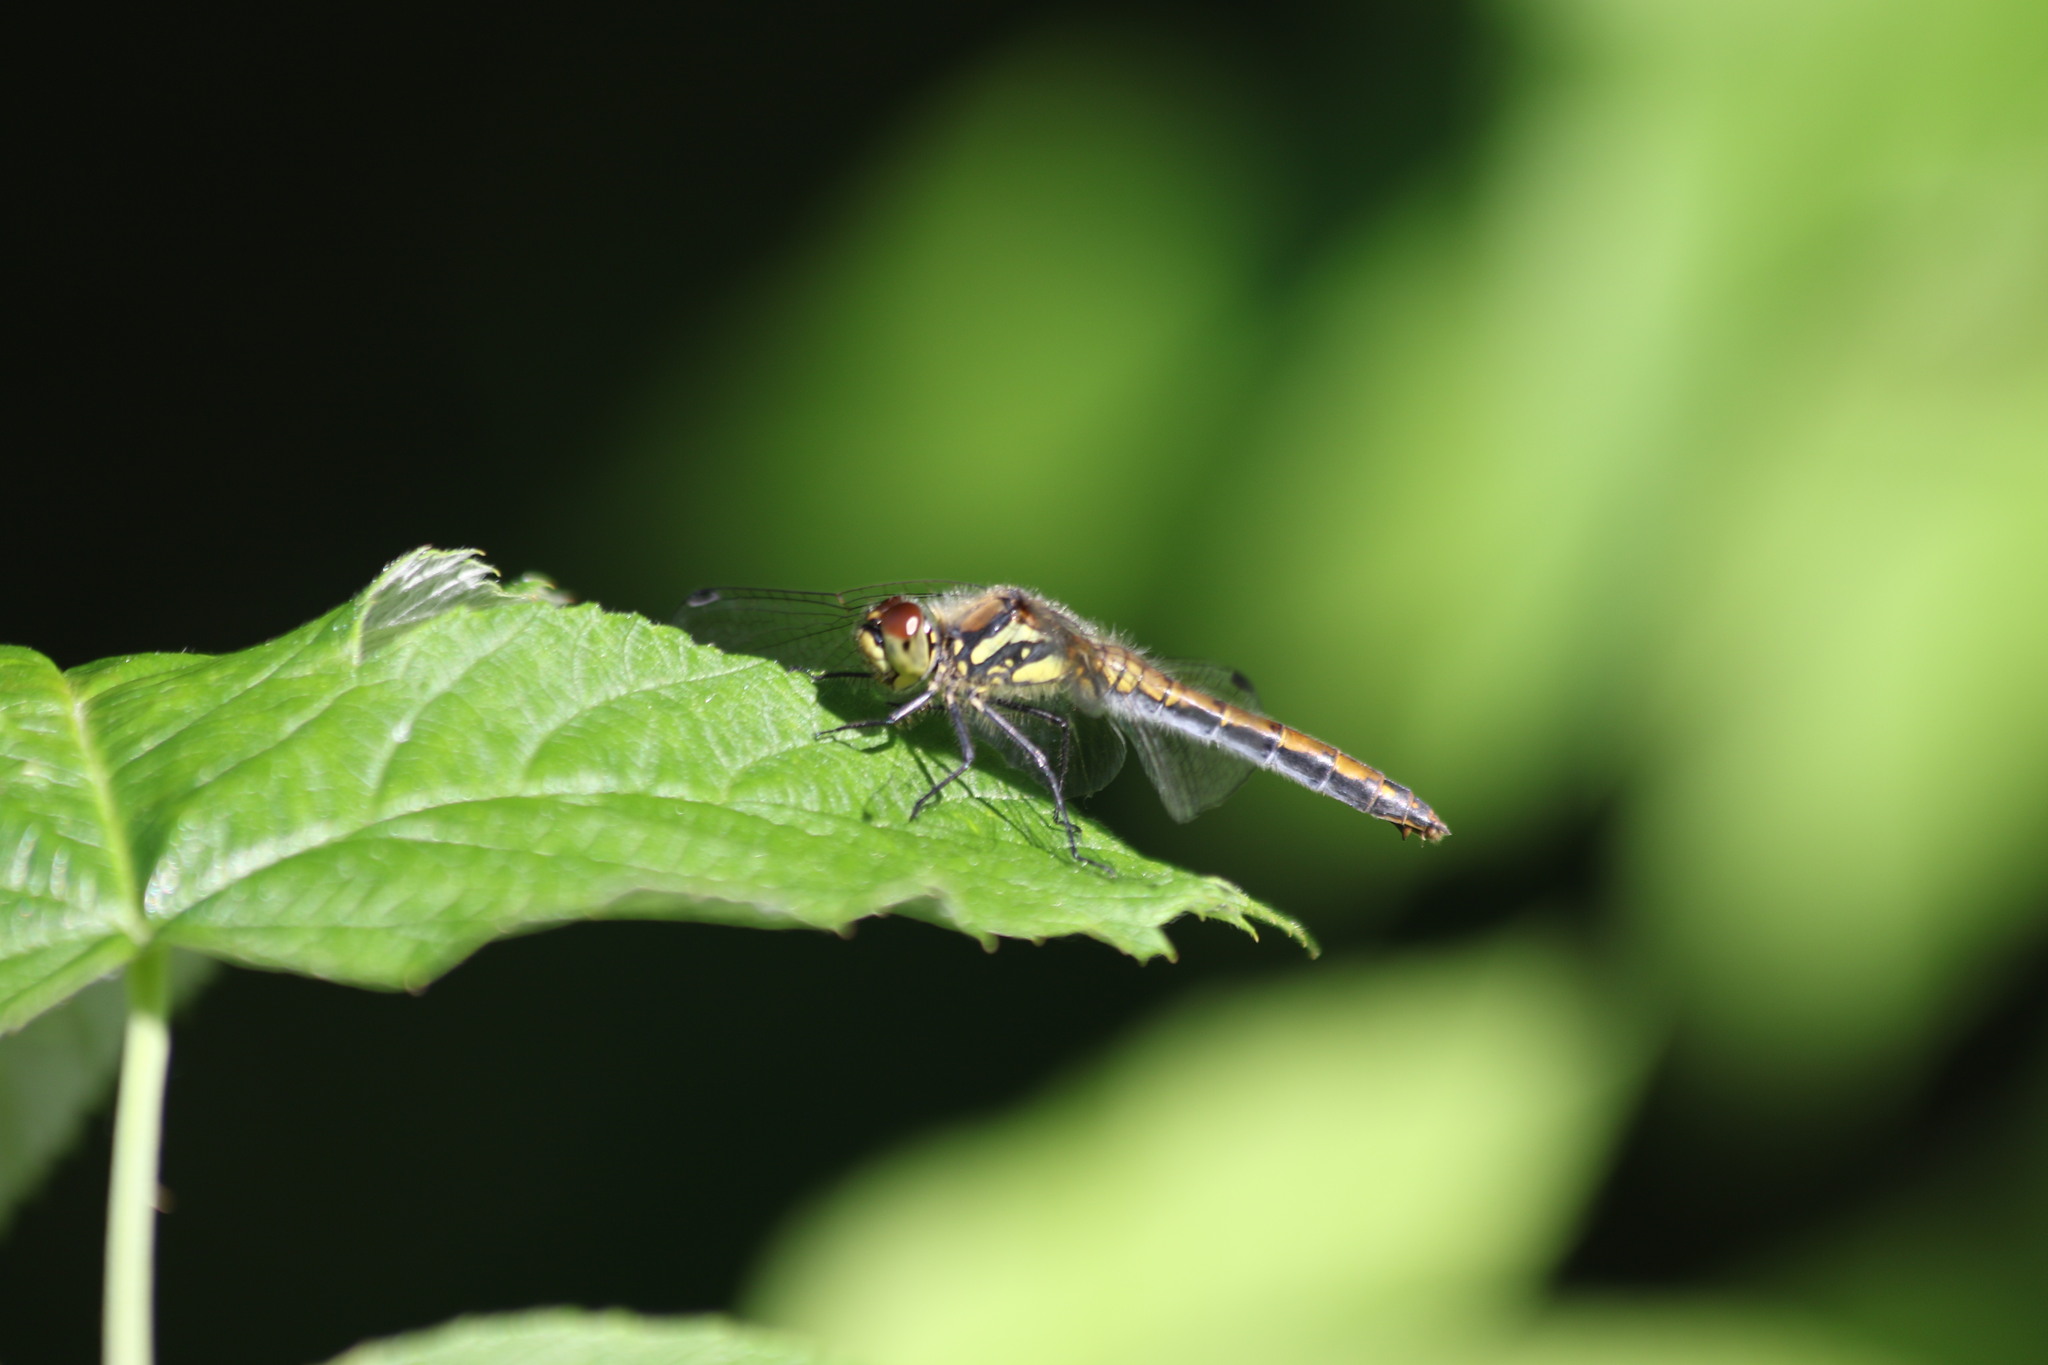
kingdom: Animalia
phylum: Arthropoda
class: Insecta
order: Odonata
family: Libellulidae
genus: Sympetrum
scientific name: Sympetrum danae
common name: Black darter
